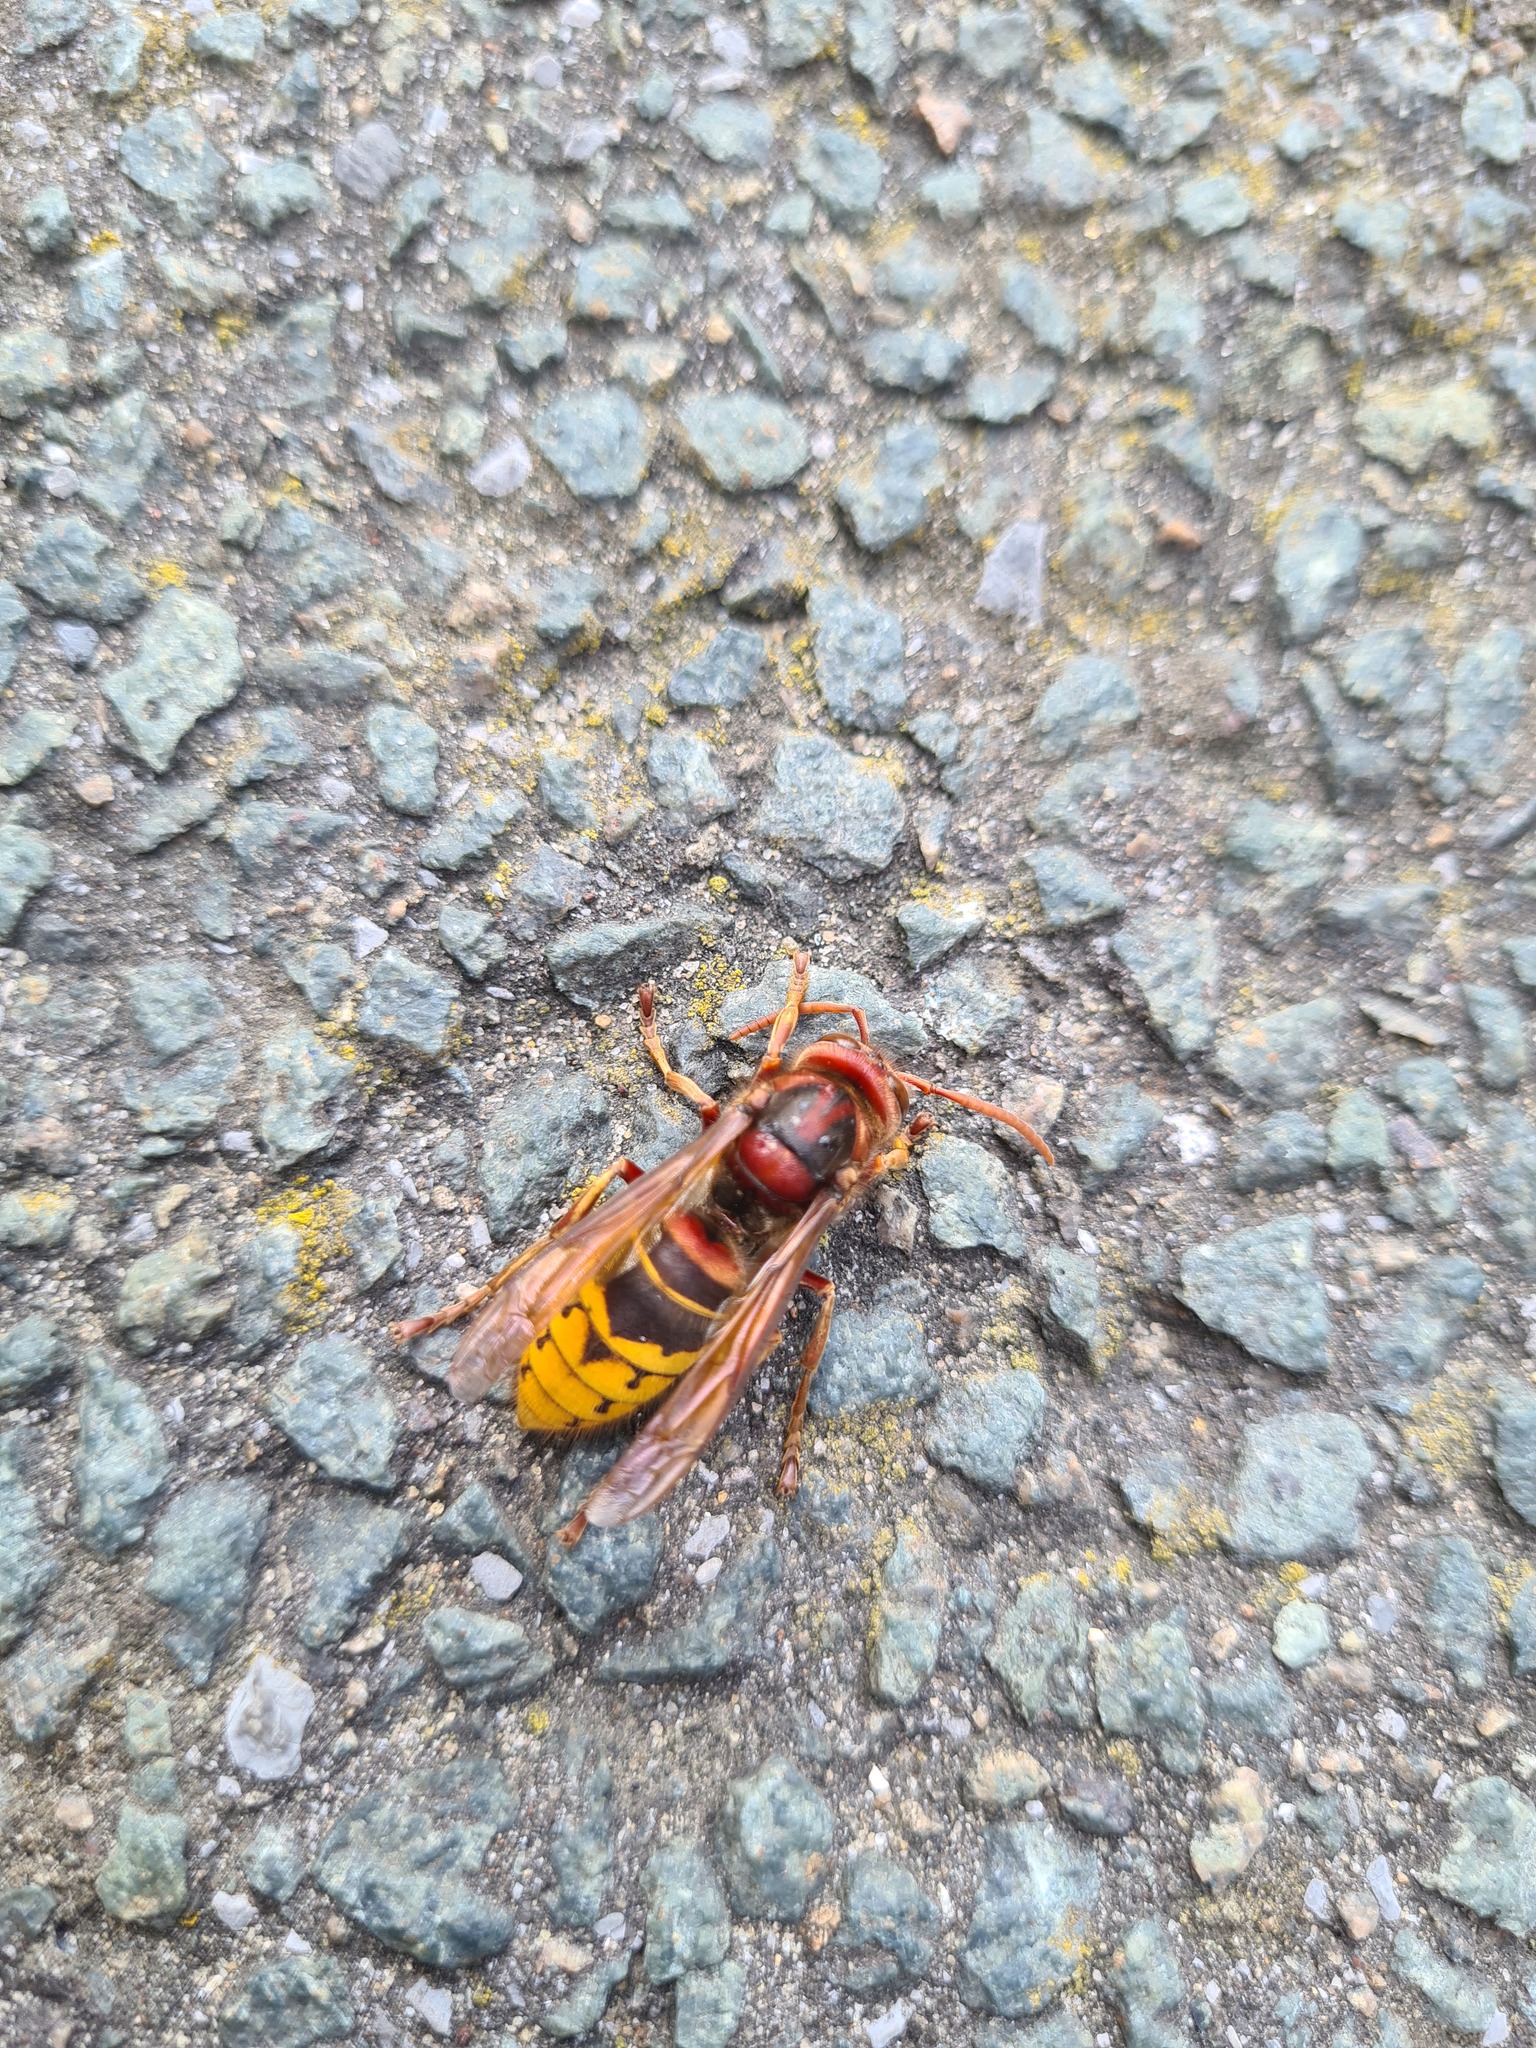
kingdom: Animalia
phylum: Arthropoda
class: Insecta
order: Hymenoptera
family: Vespidae
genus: Vespa
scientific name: Vespa crabro
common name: Hornet
